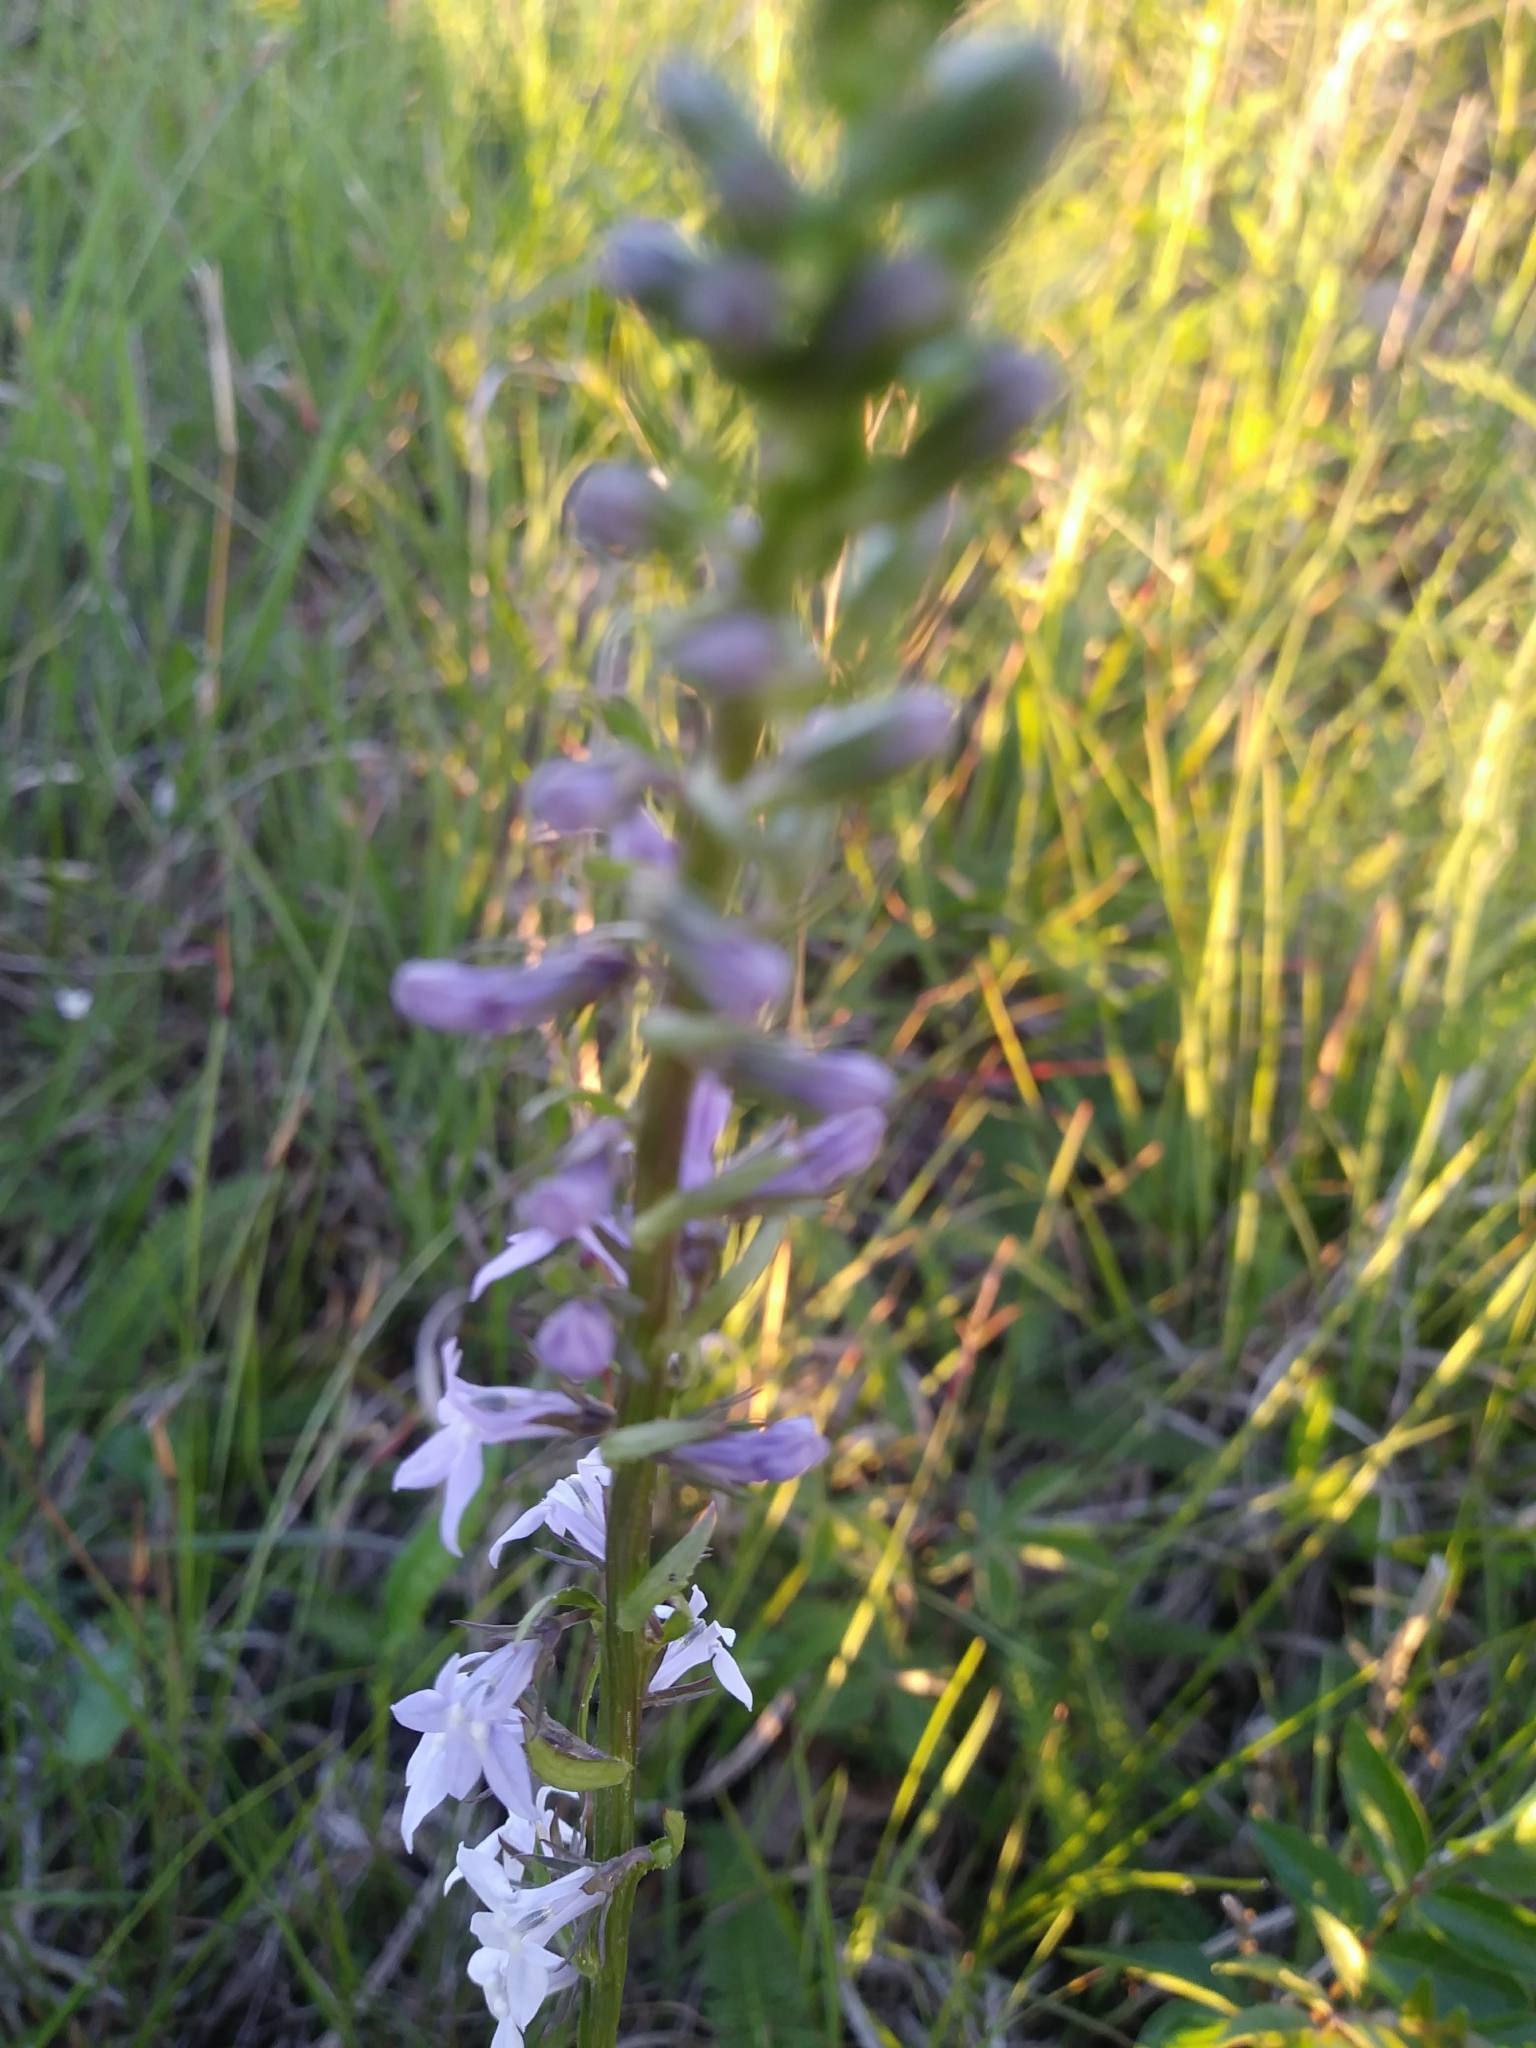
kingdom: Plantae
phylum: Tracheophyta
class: Magnoliopsida
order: Asterales
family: Campanulaceae
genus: Lobelia
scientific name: Lobelia spicata
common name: Pale-spike lobelia
